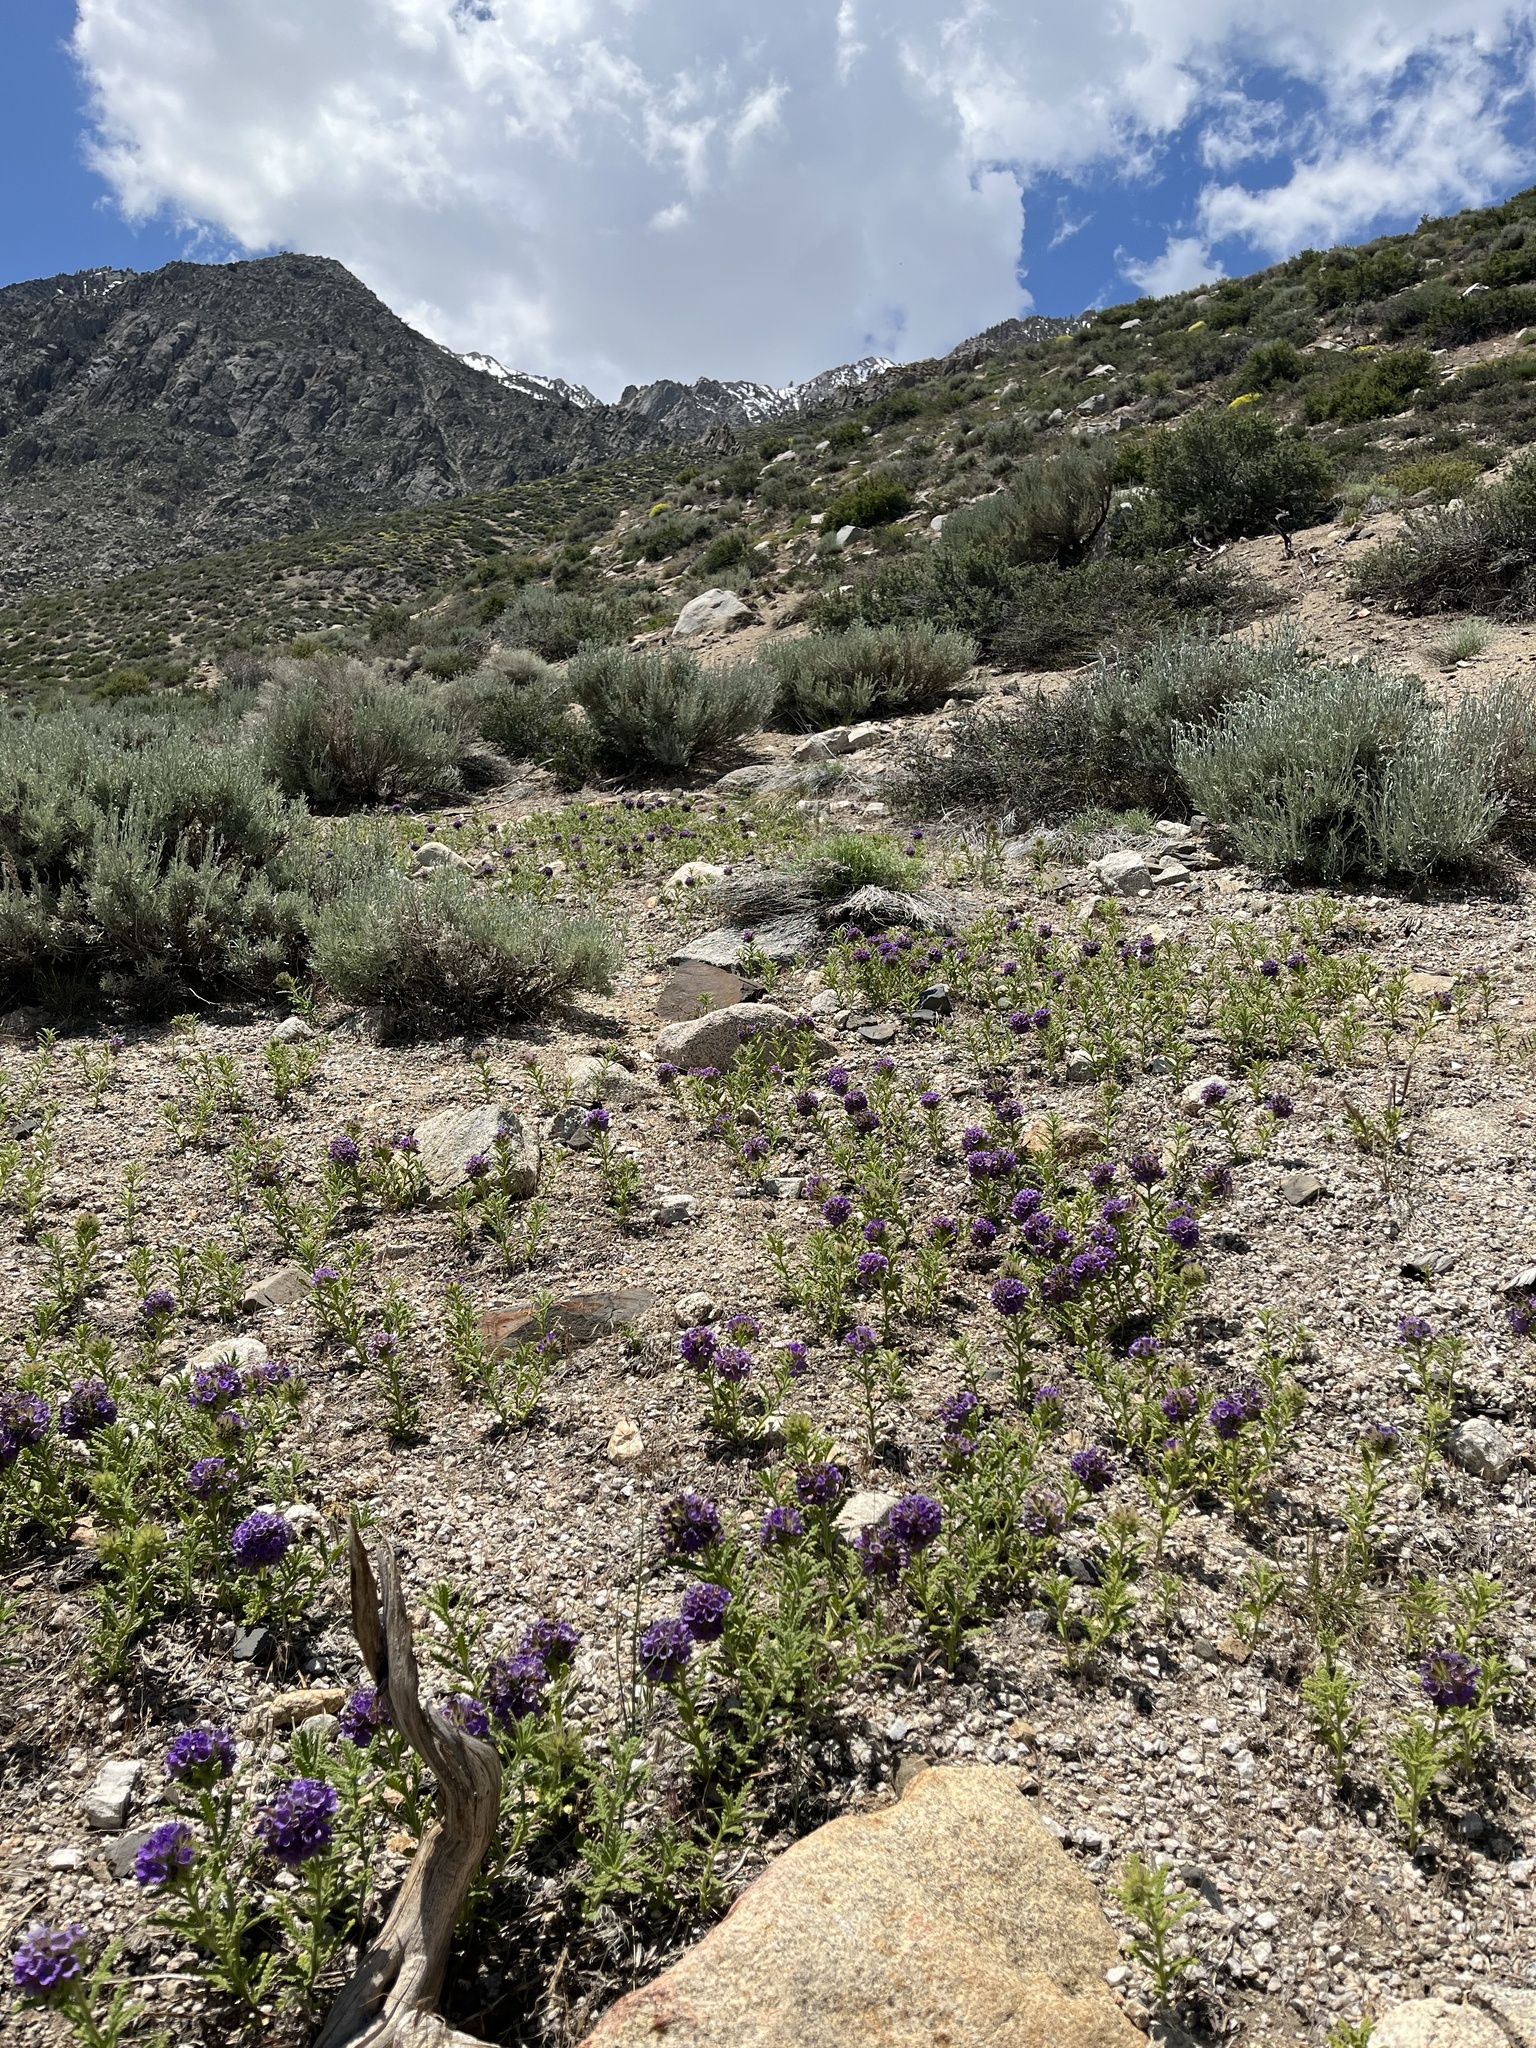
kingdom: Plantae
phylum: Tracheophyta
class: Magnoliopsida
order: Boraginales
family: Namaceae
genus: Nama
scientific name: Nama rothrockii
